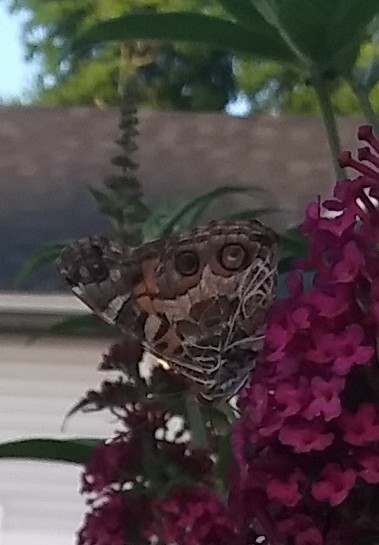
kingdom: Animalia
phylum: Arthropoda
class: Insecta
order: Lepidoptera
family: Nymphalidae
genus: Vanessa
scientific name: Vanessa virginiensis
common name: American lady
